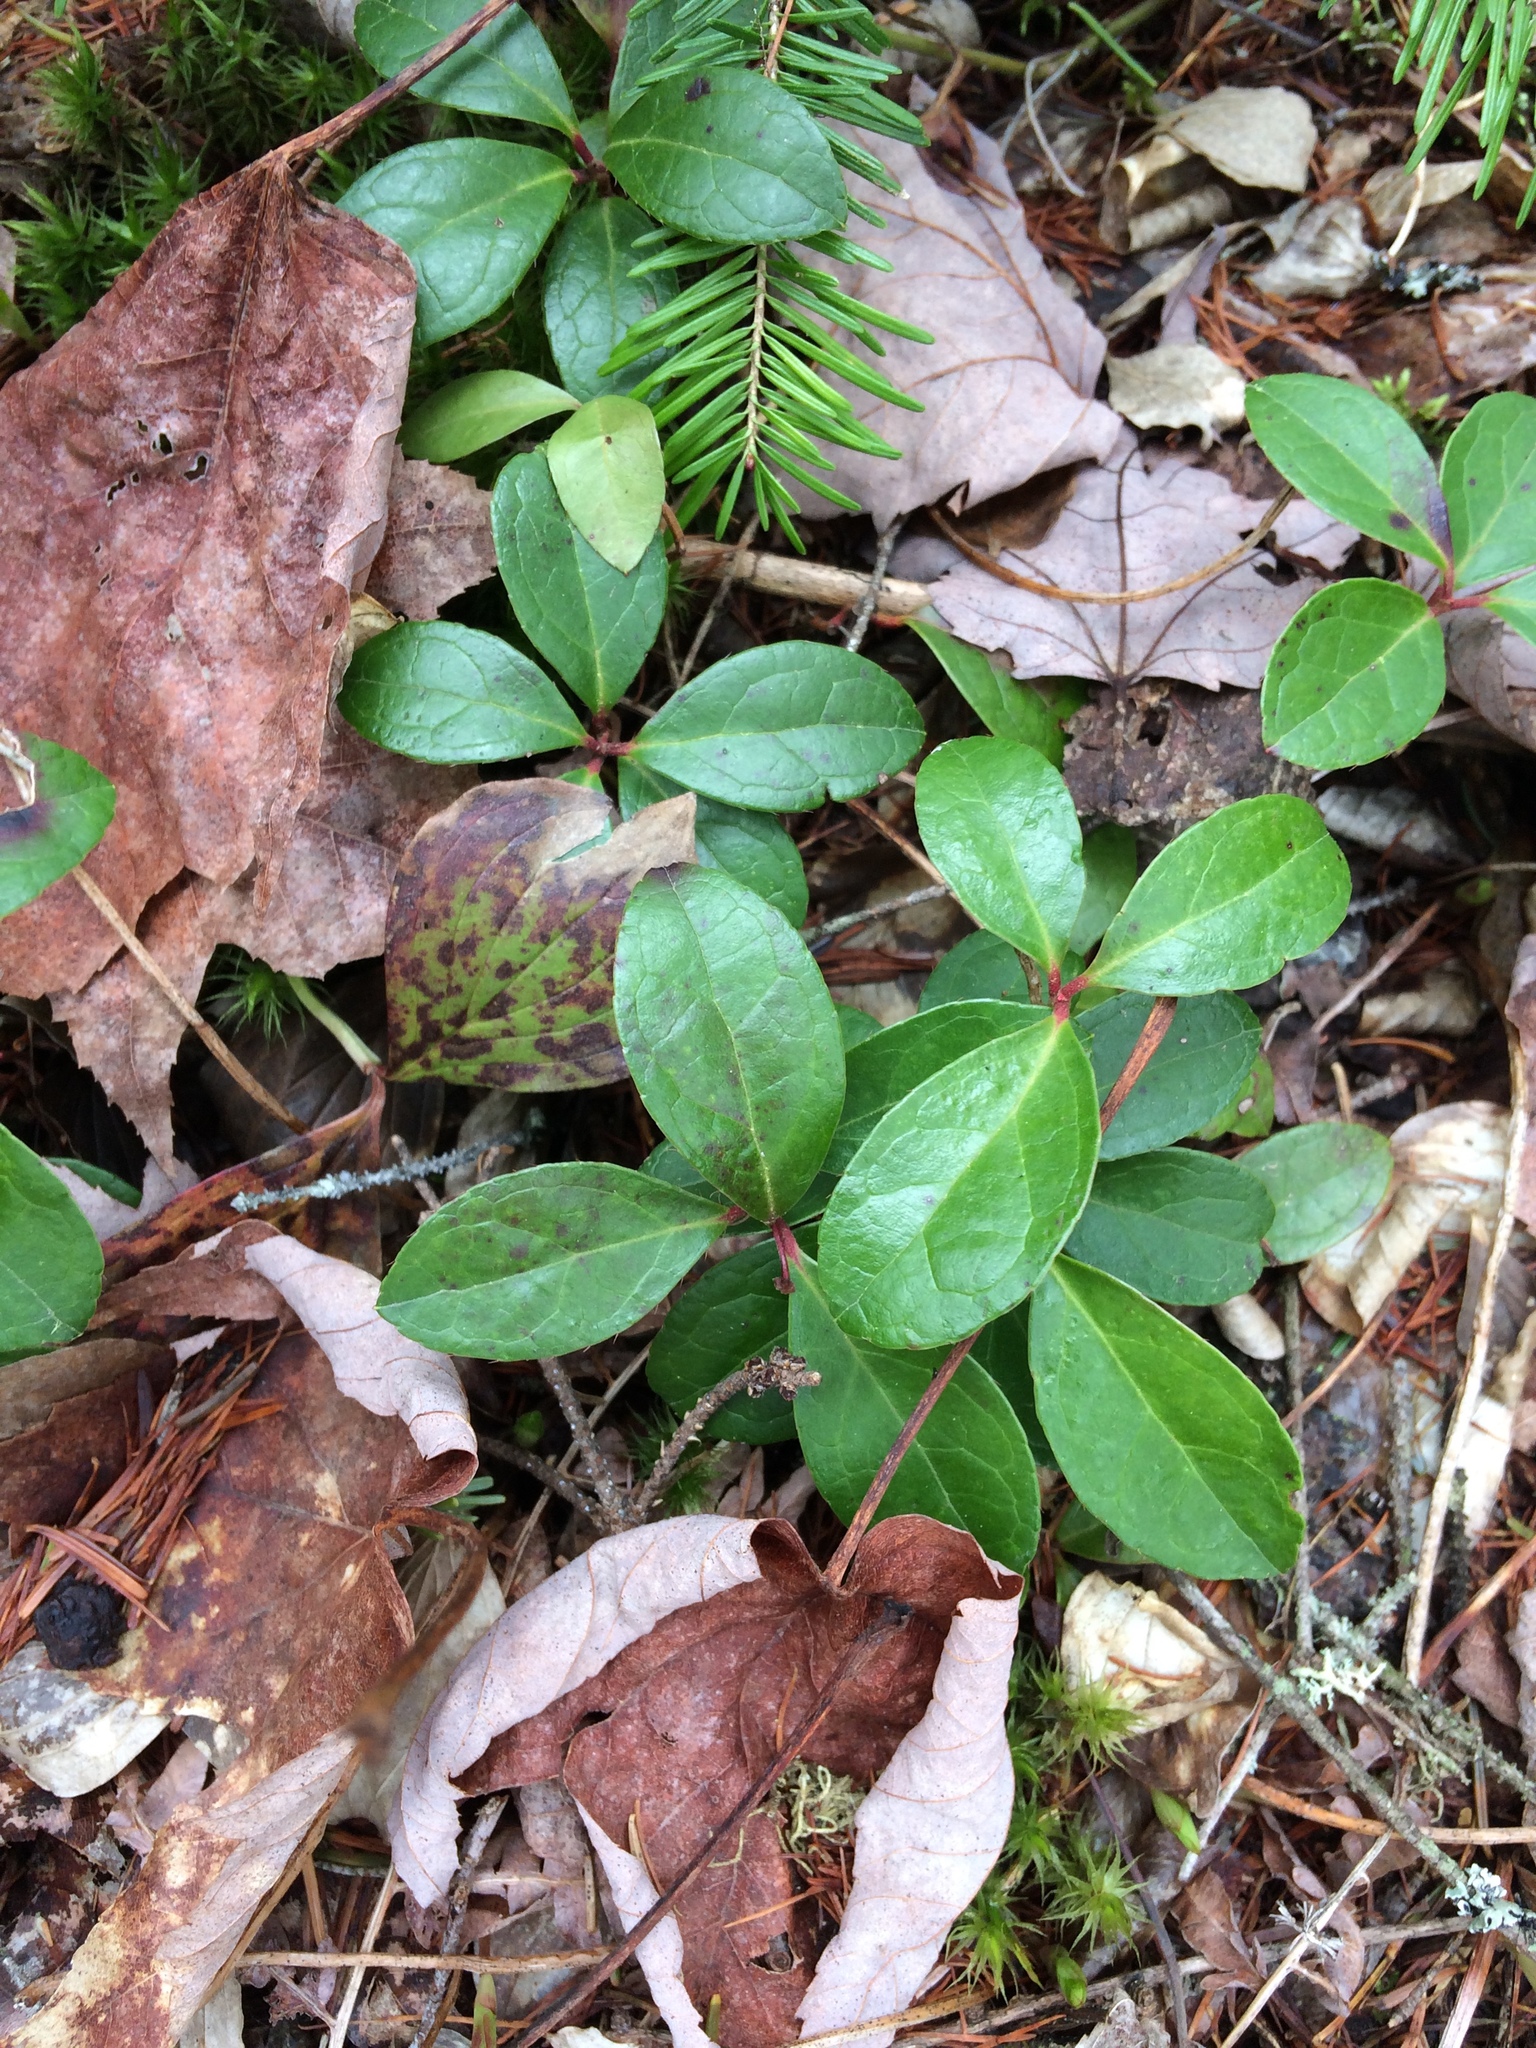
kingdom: Plantae
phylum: Tracheophyta
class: Magnoliopsida
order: Ericales
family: Ericaceae
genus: Gaultheria
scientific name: Gaultheria procumbens
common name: Checkerberry
